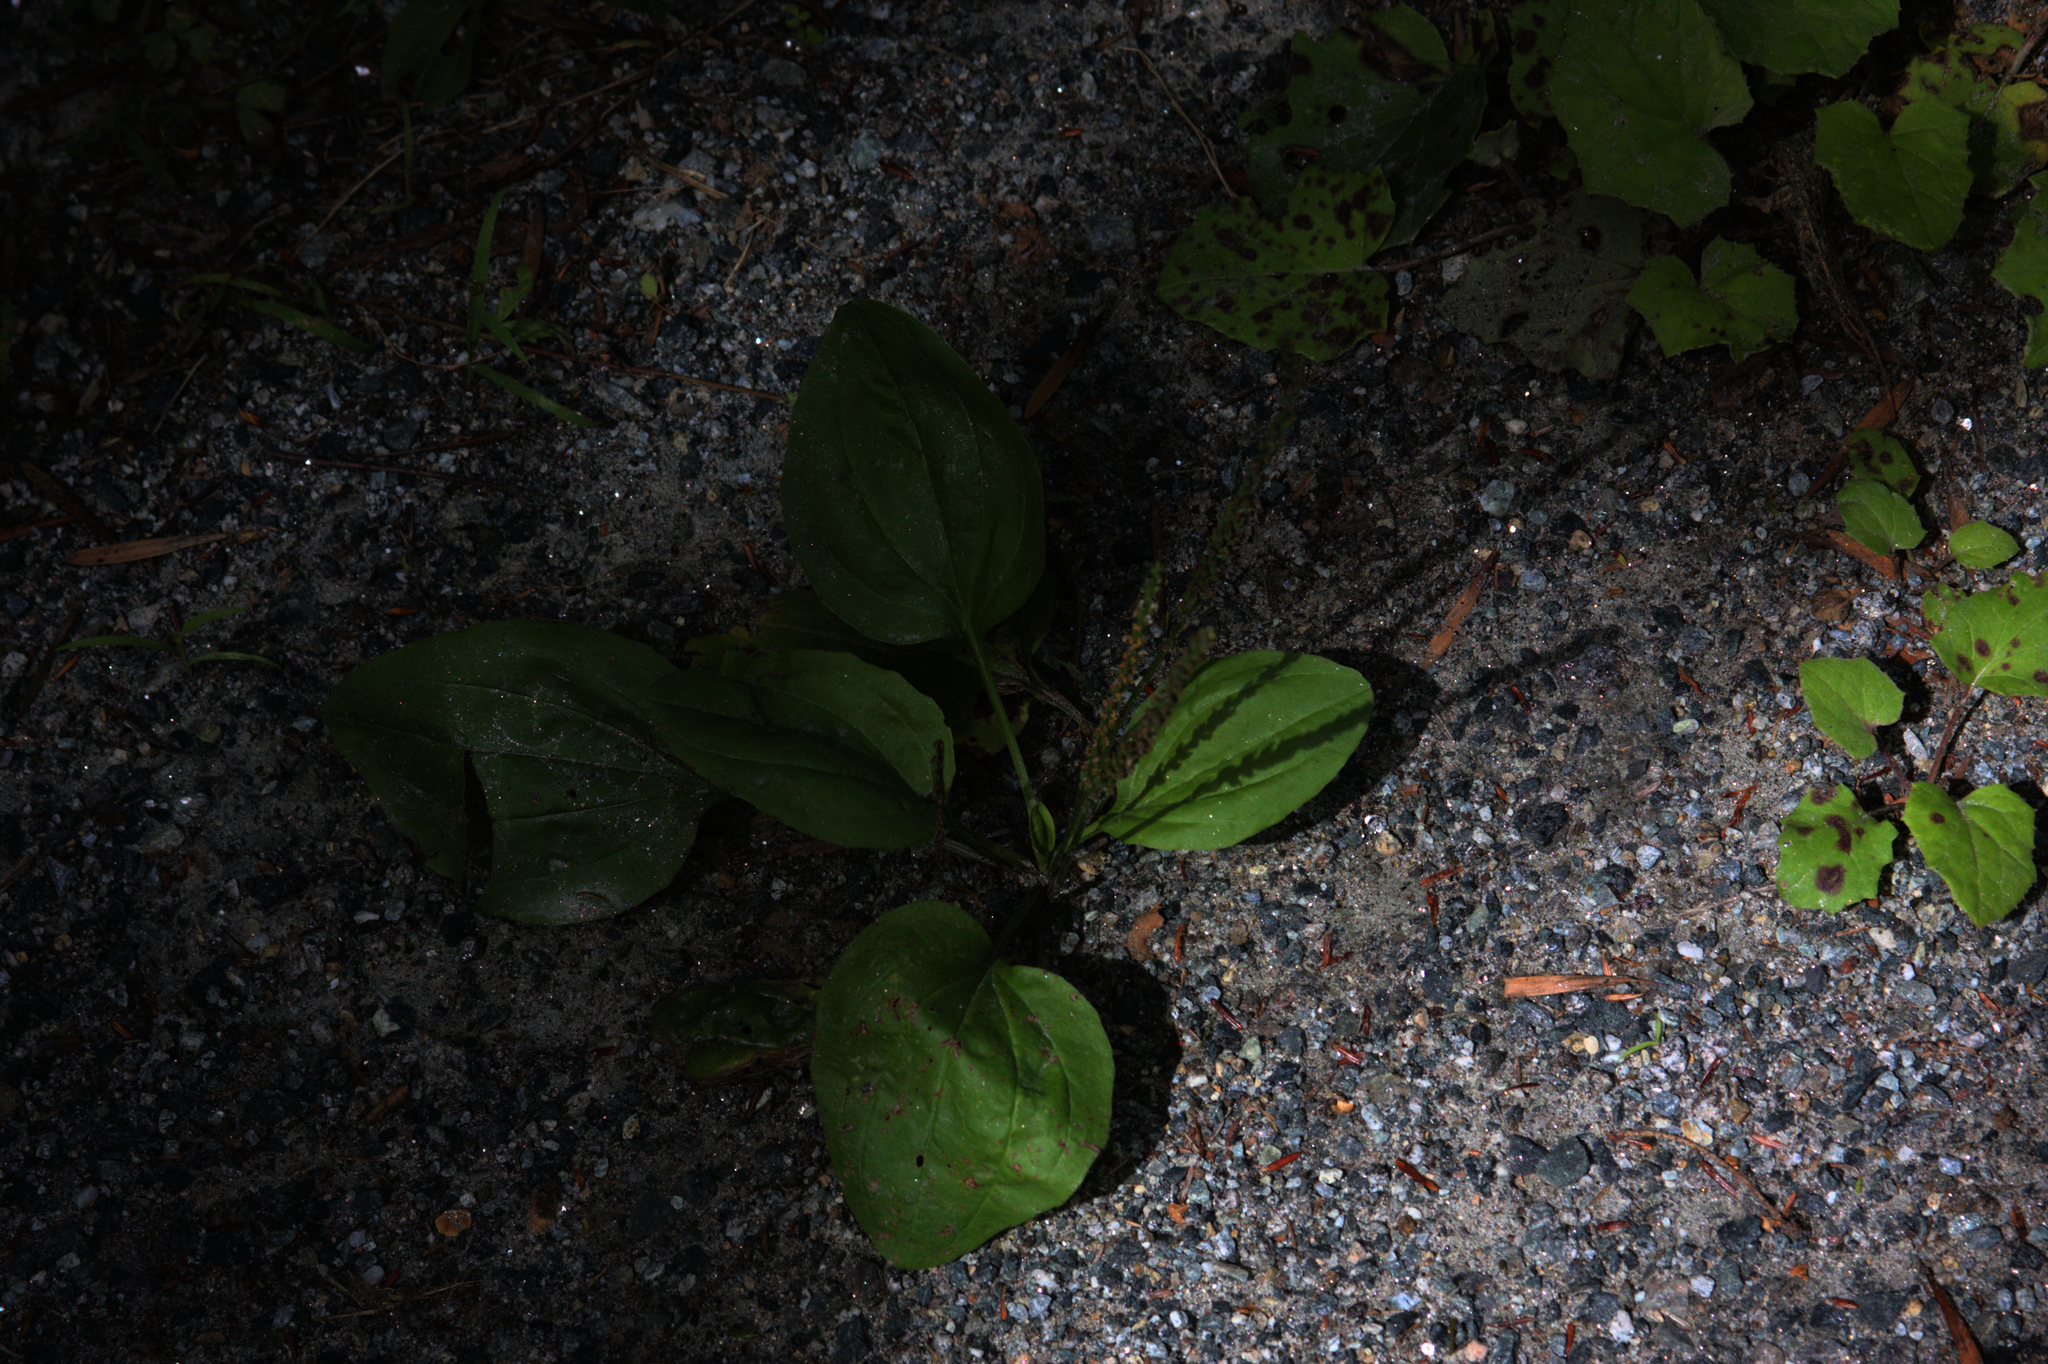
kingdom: Plantae
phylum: Tracheophyta
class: Magnoliopsida
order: Lamiales
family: Plantaginaceae
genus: Plantago
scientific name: Plantago major
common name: Common plantain
